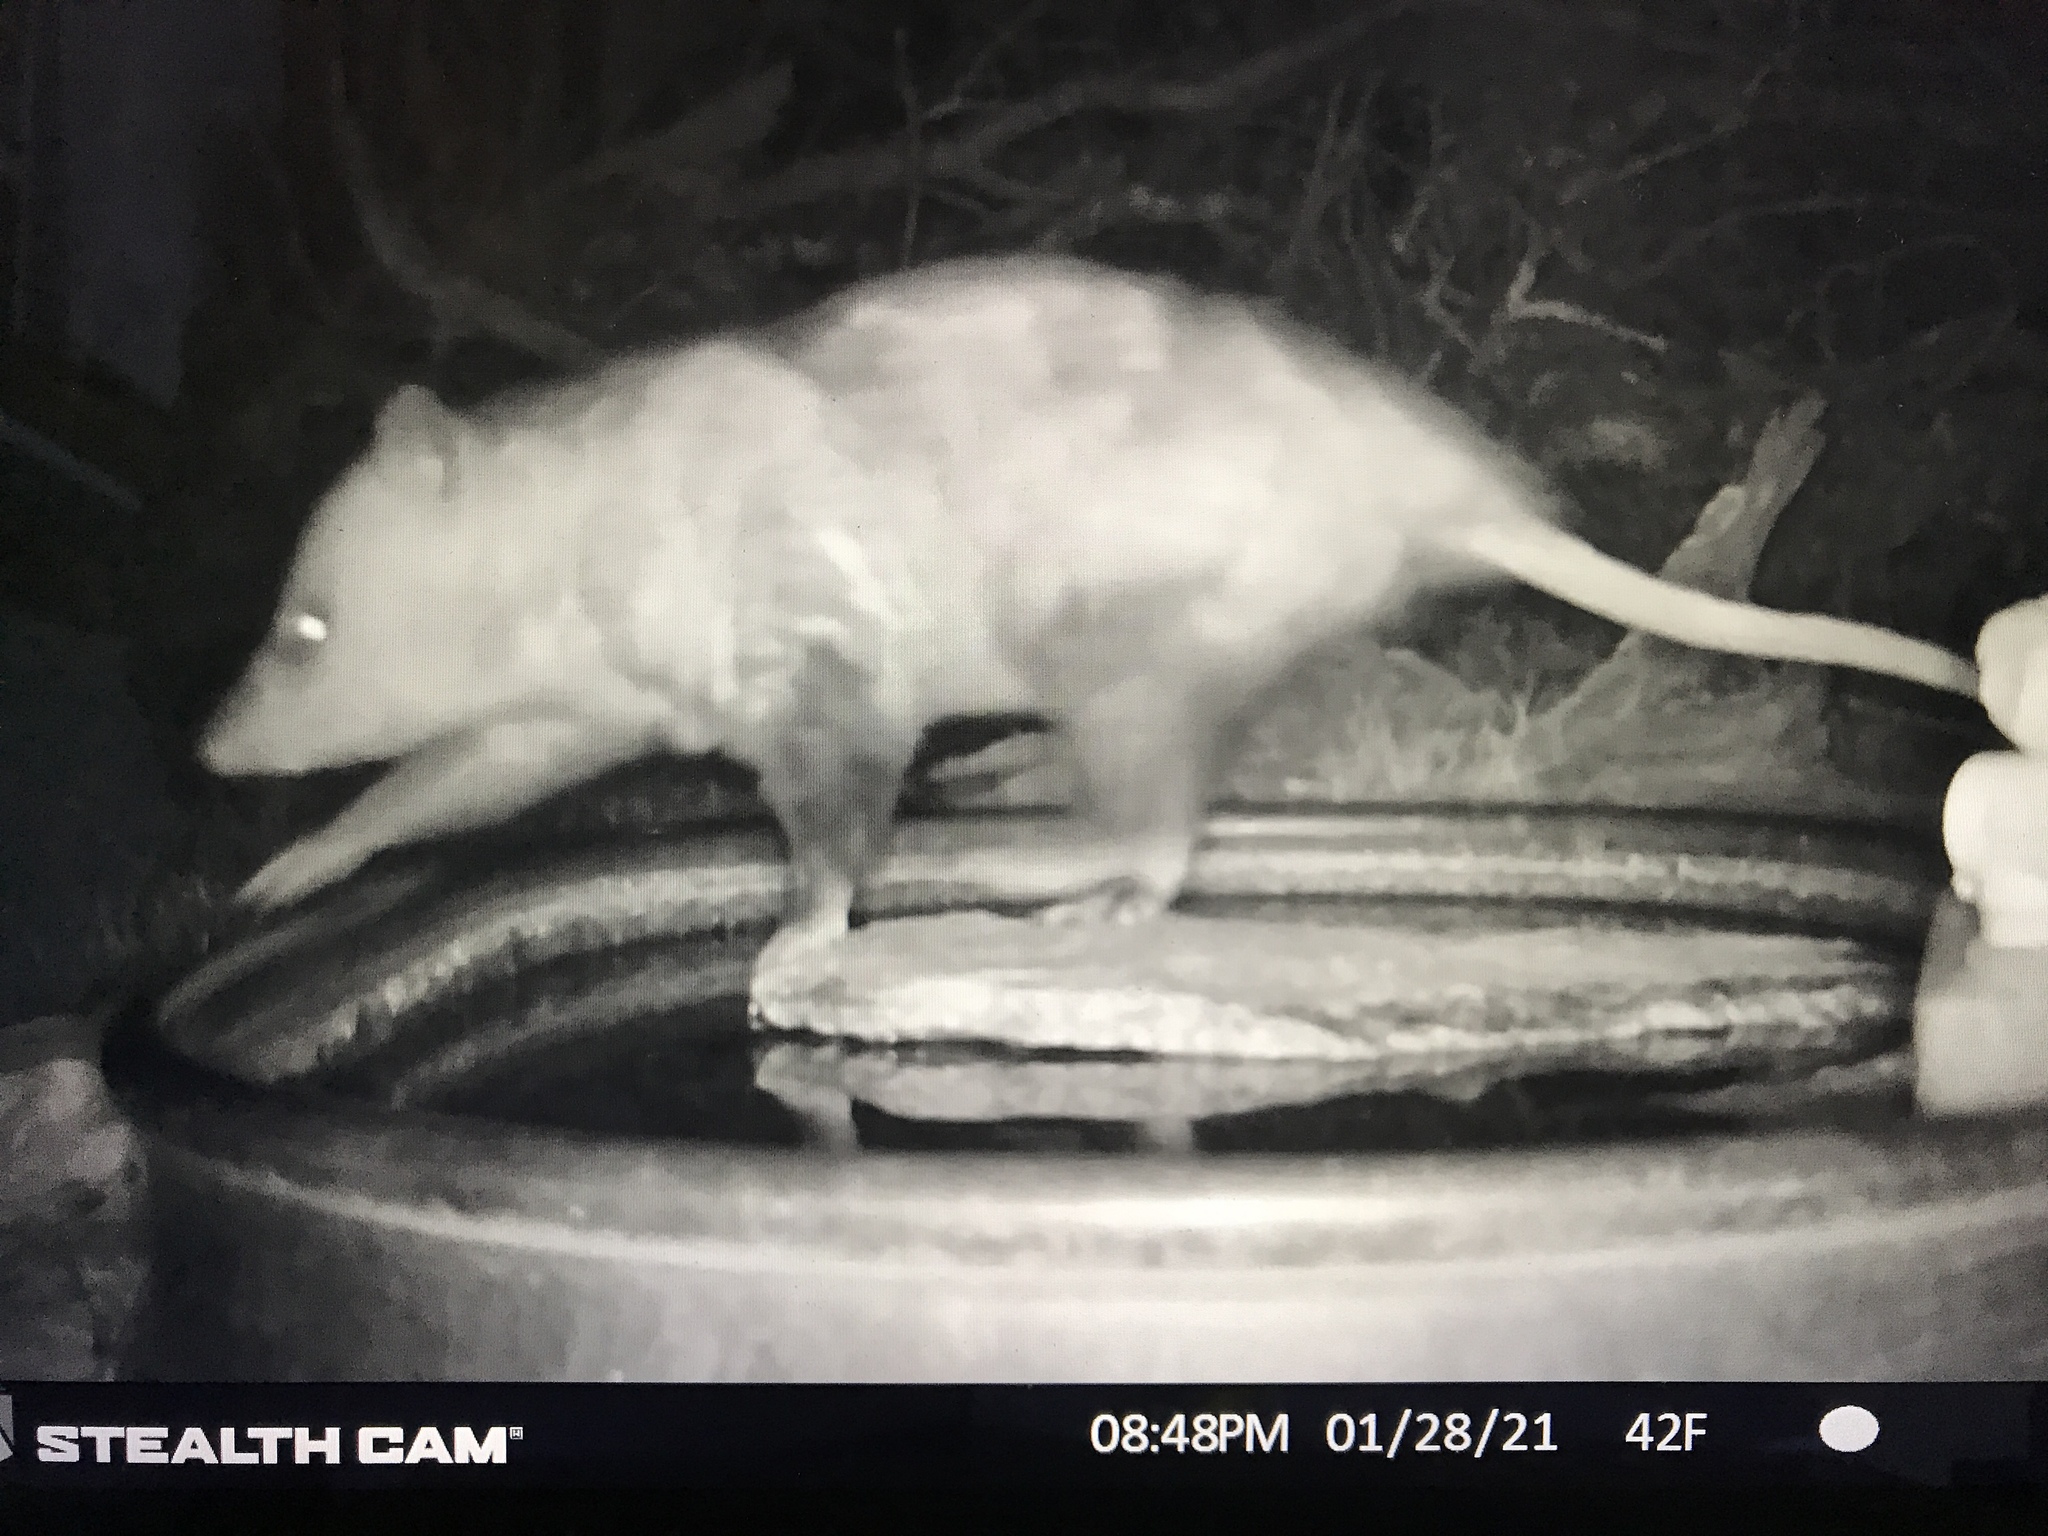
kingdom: Animalia
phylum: Chordata
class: Mammalia
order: Didelphimorphia
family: Didelphidae
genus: Didelphis
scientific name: Didelphis virginiana
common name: Virginia opossum
